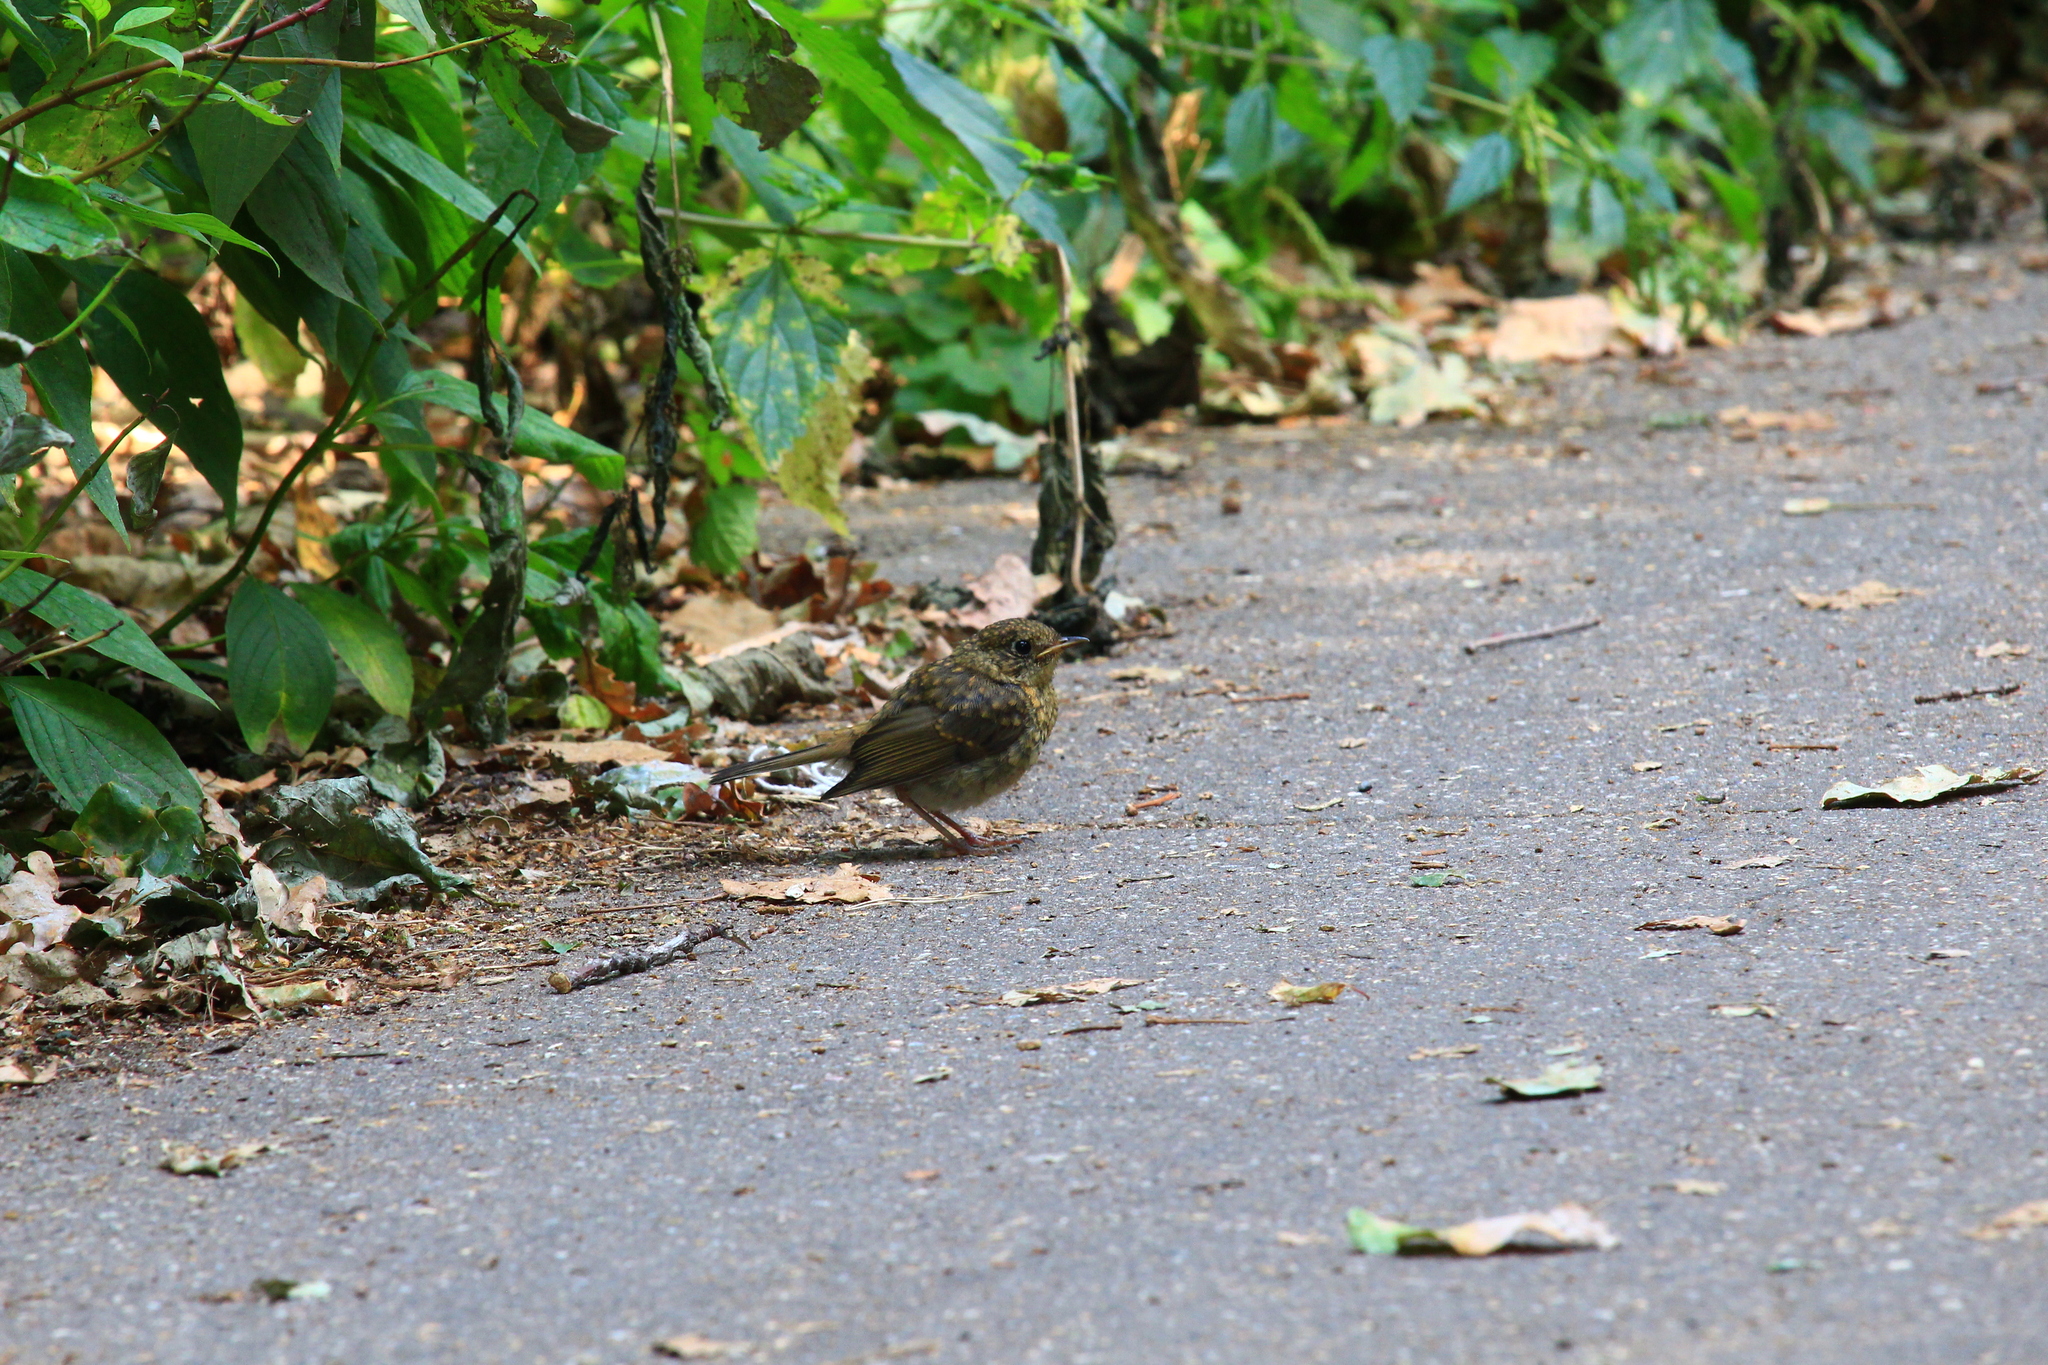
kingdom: Animalia
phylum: Chordata
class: Aves
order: Passeriformes
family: Muscicapidae
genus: Erithacus
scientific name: Erithacus rubecula
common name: European robin
